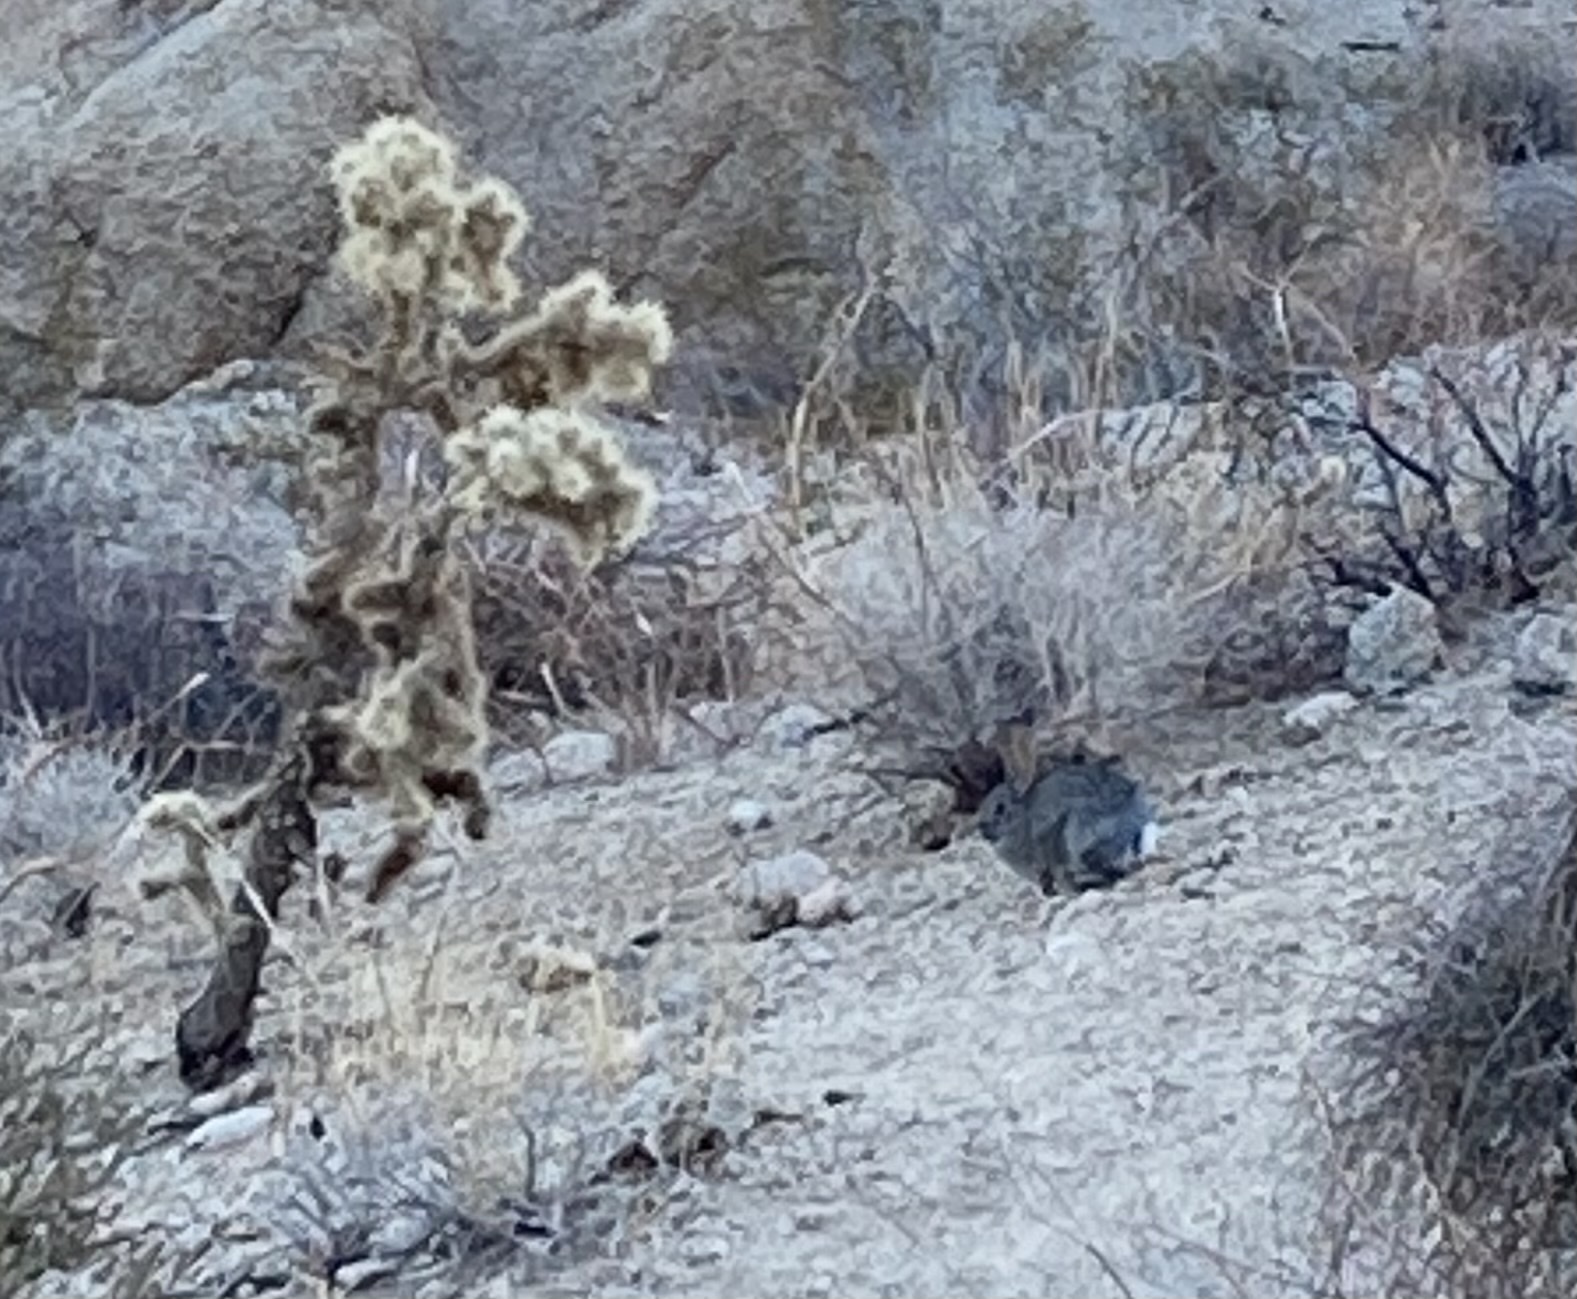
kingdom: Animalia
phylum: Chordata
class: Mammalia
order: Lagomorpha
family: Leporidae
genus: Sylvilagus
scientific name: Sylvilagus audubonii
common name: Desert cottontail
